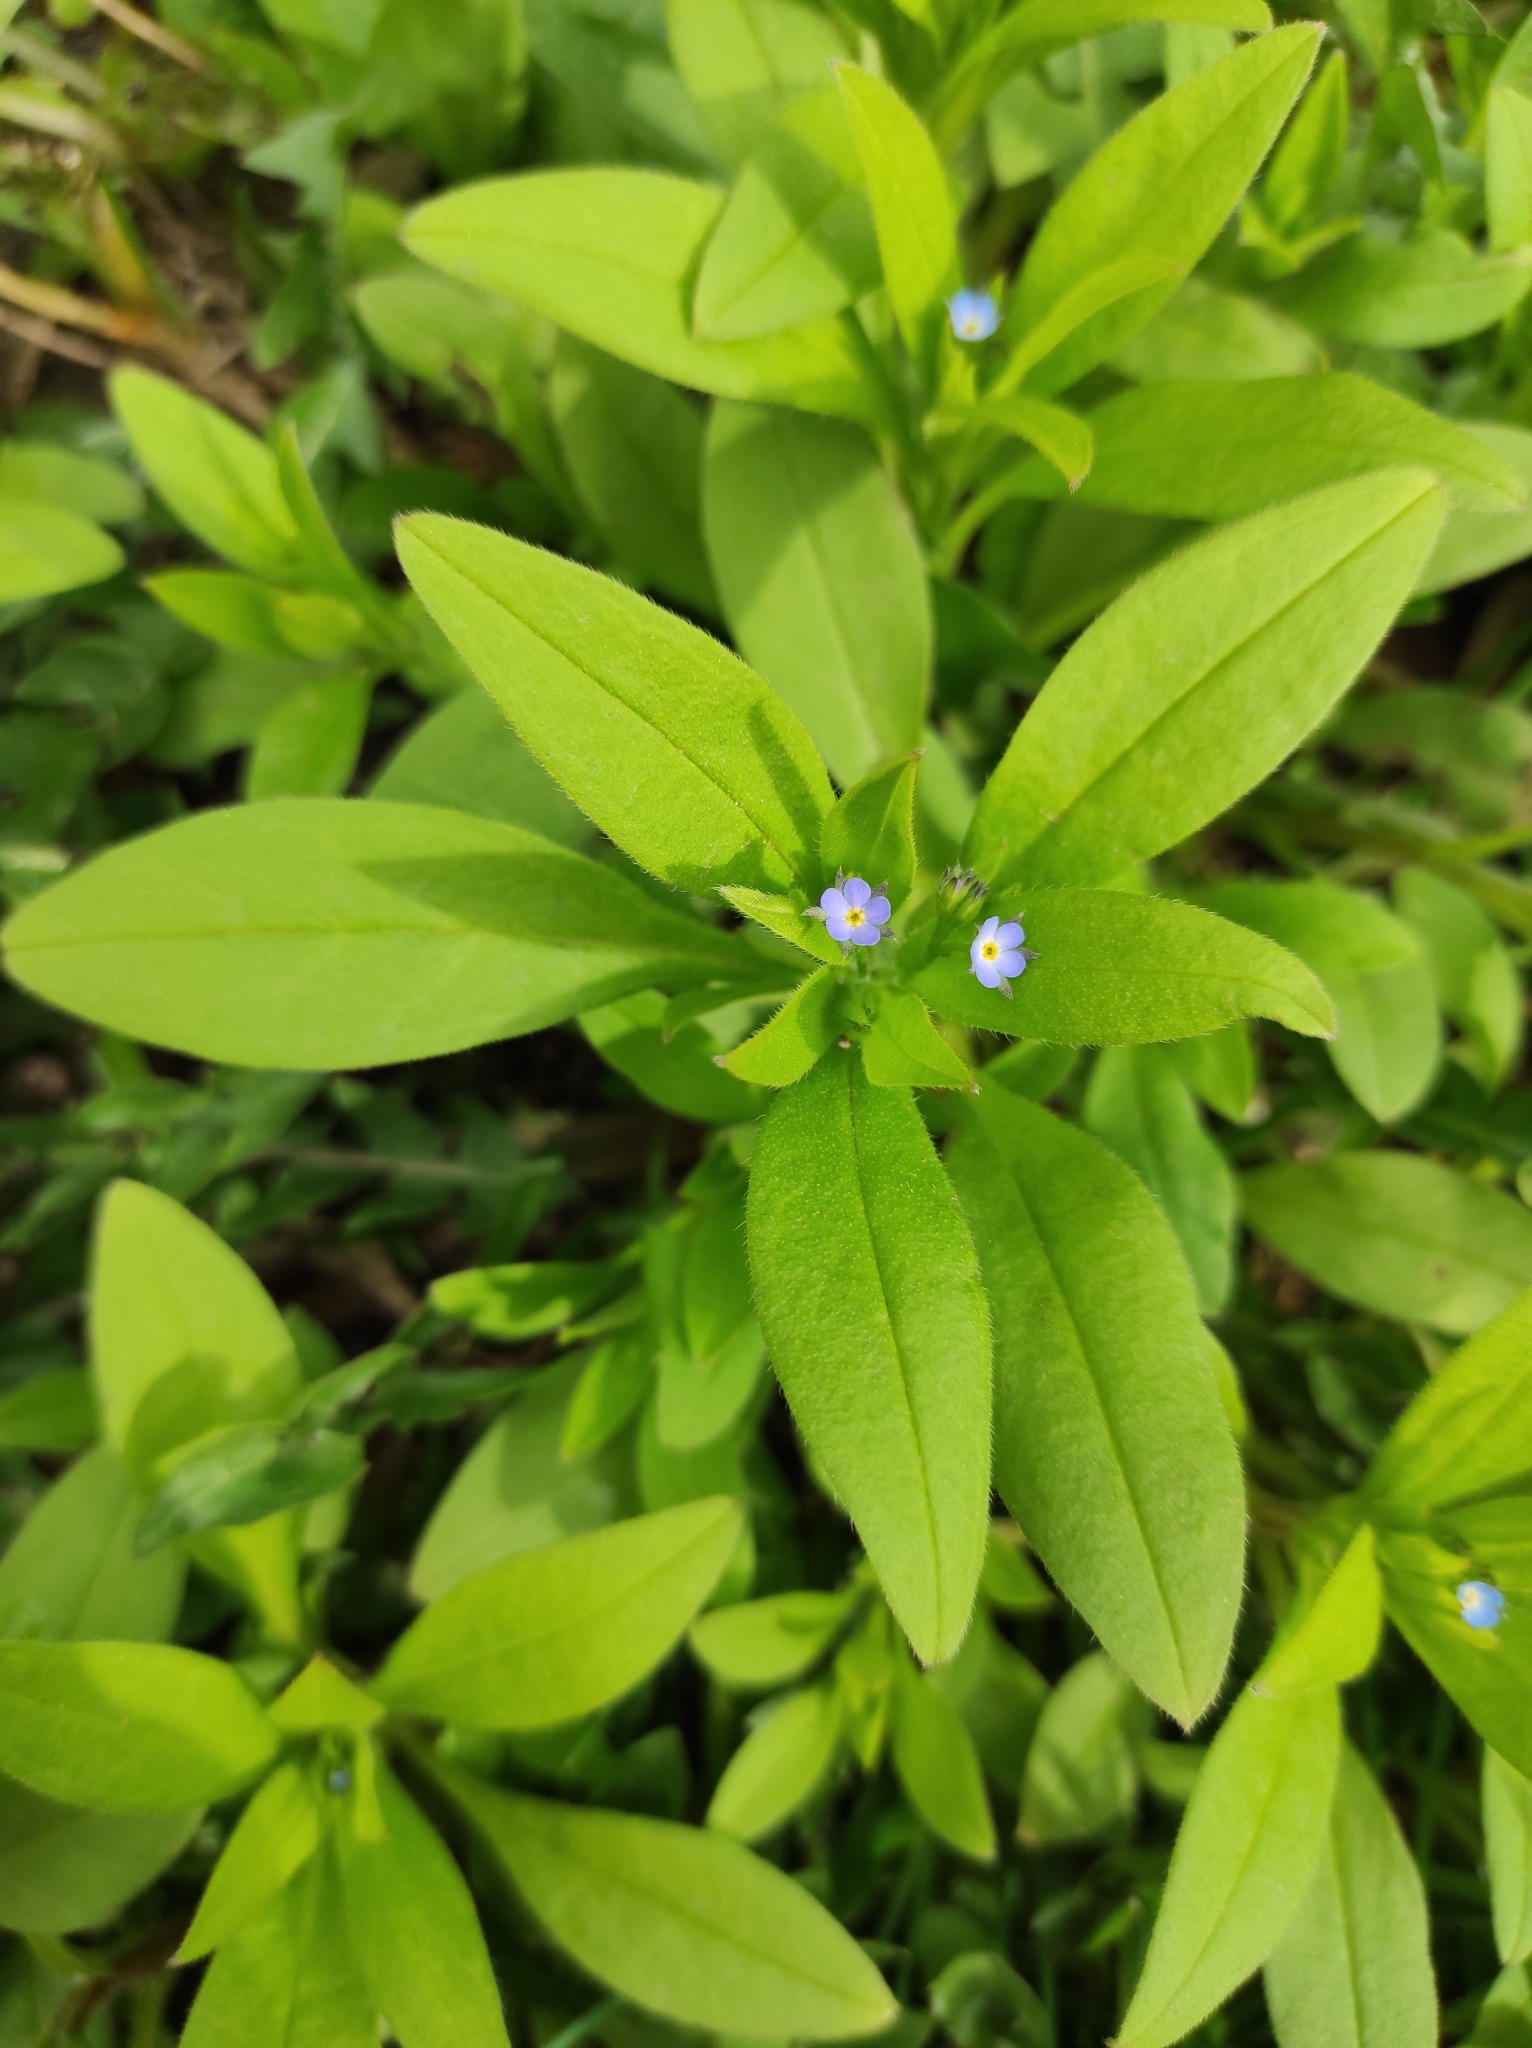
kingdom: Plantae
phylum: Tracheophyta
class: Magnoliopsida
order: Boraginales
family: Boraginaceae
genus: Myosotis
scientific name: Myosotis sparsiflora
